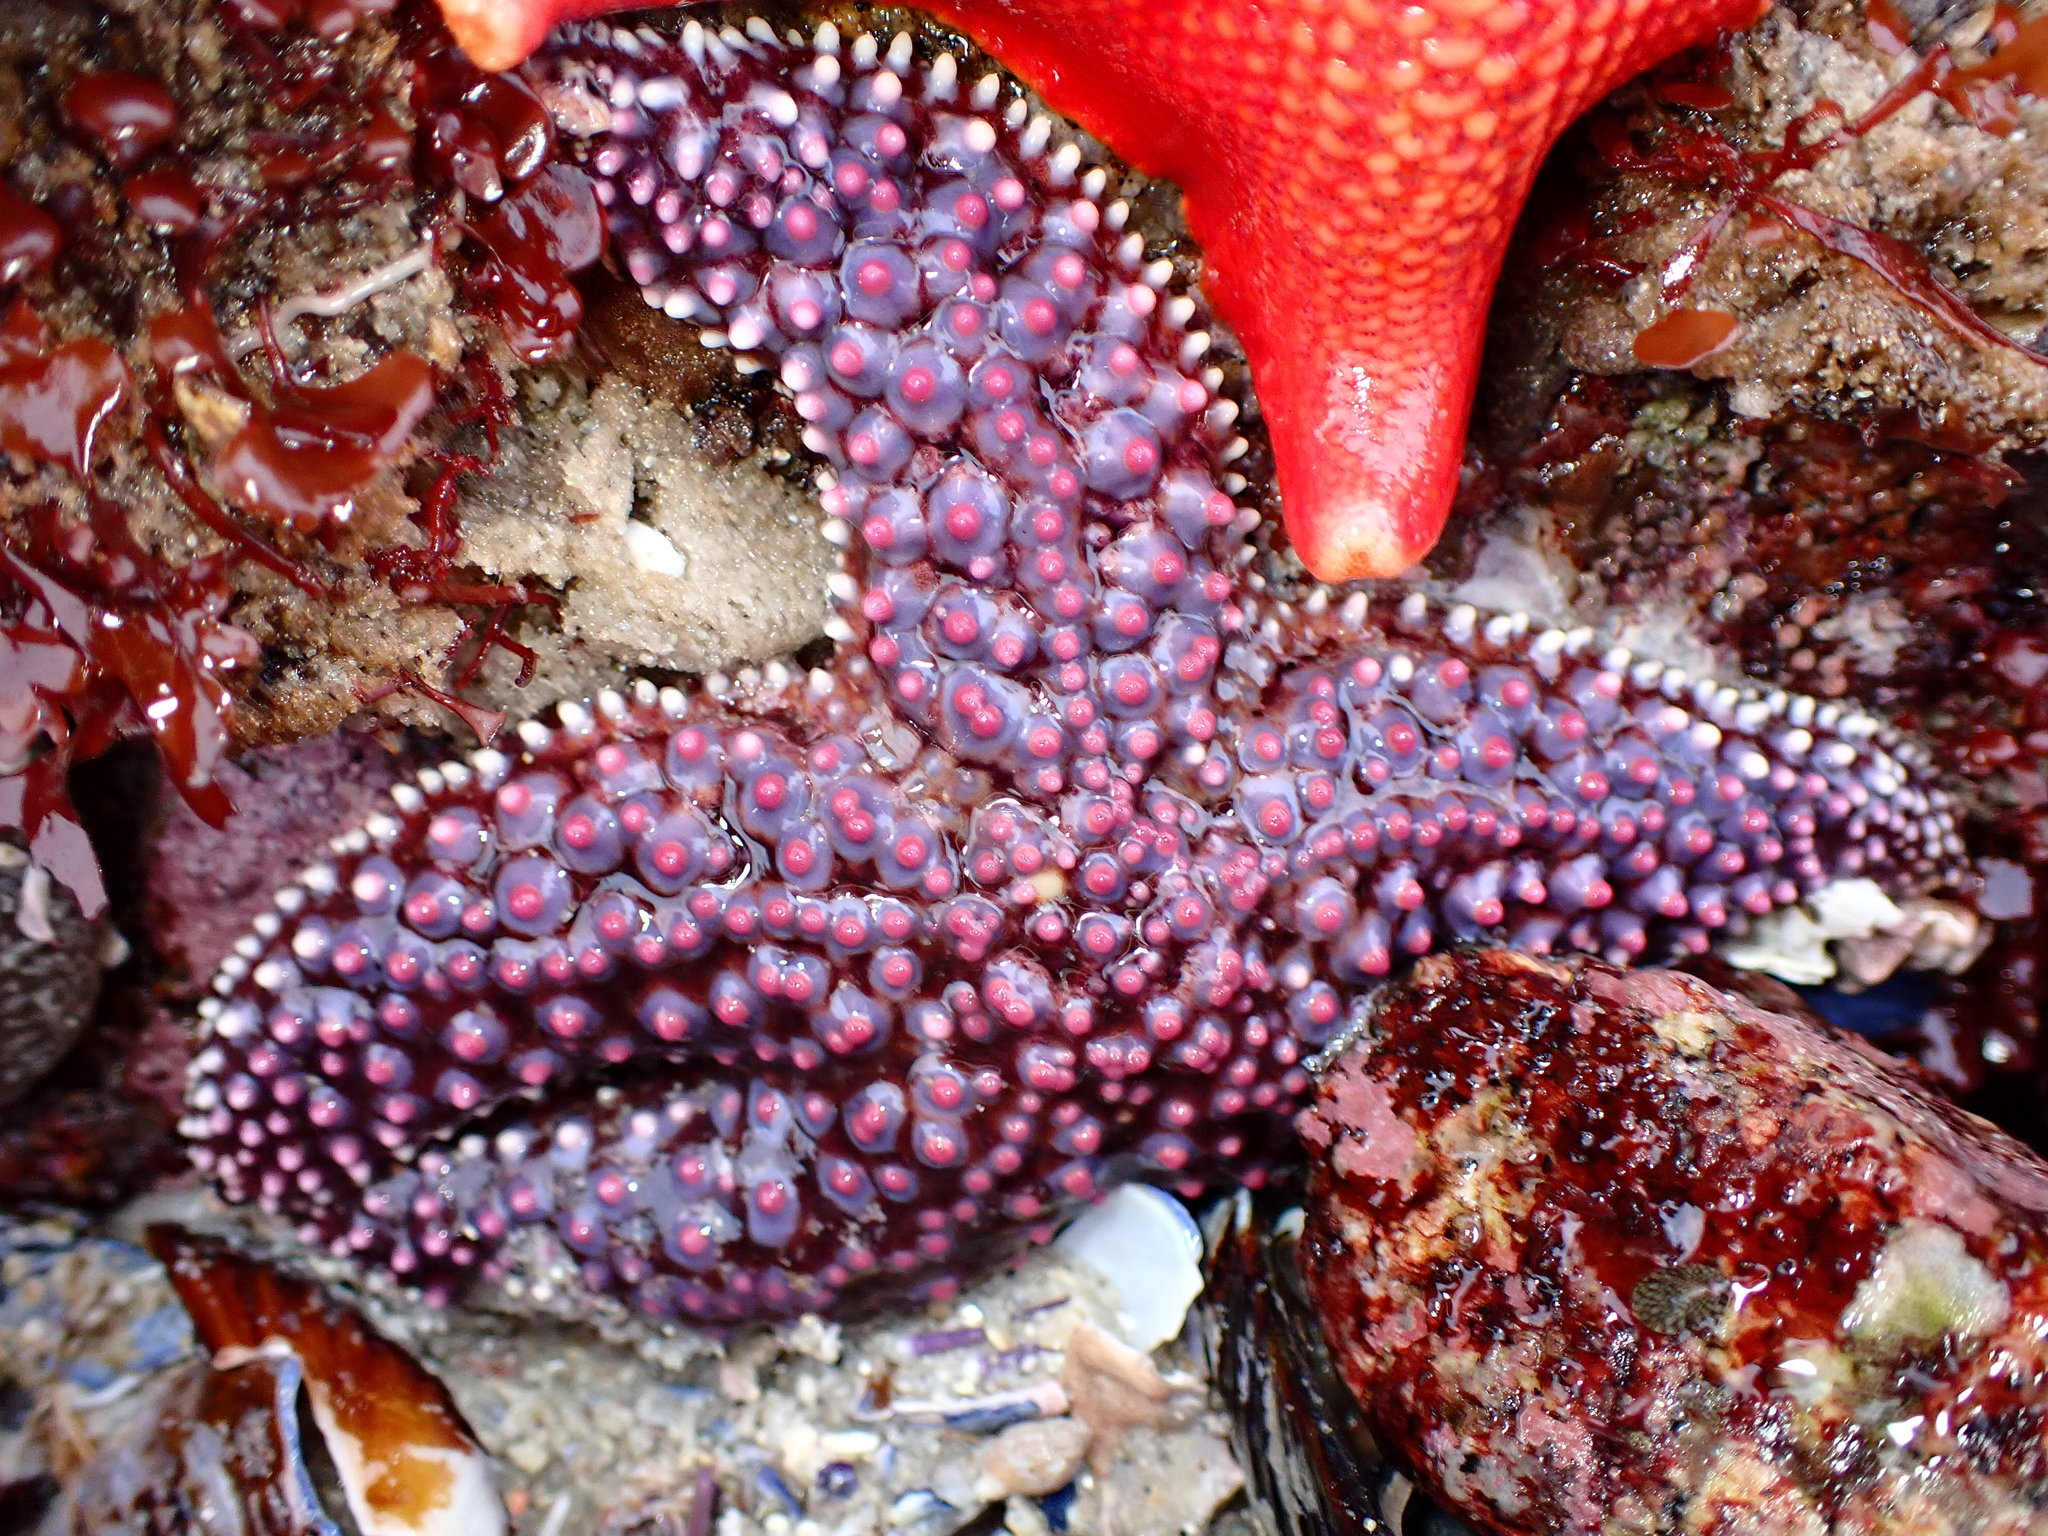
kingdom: Animalia
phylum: Echinodermata
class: Asteroidea
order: Forcipulatida
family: Asteriidae
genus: Pisaster
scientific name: Pisaster giganteus
